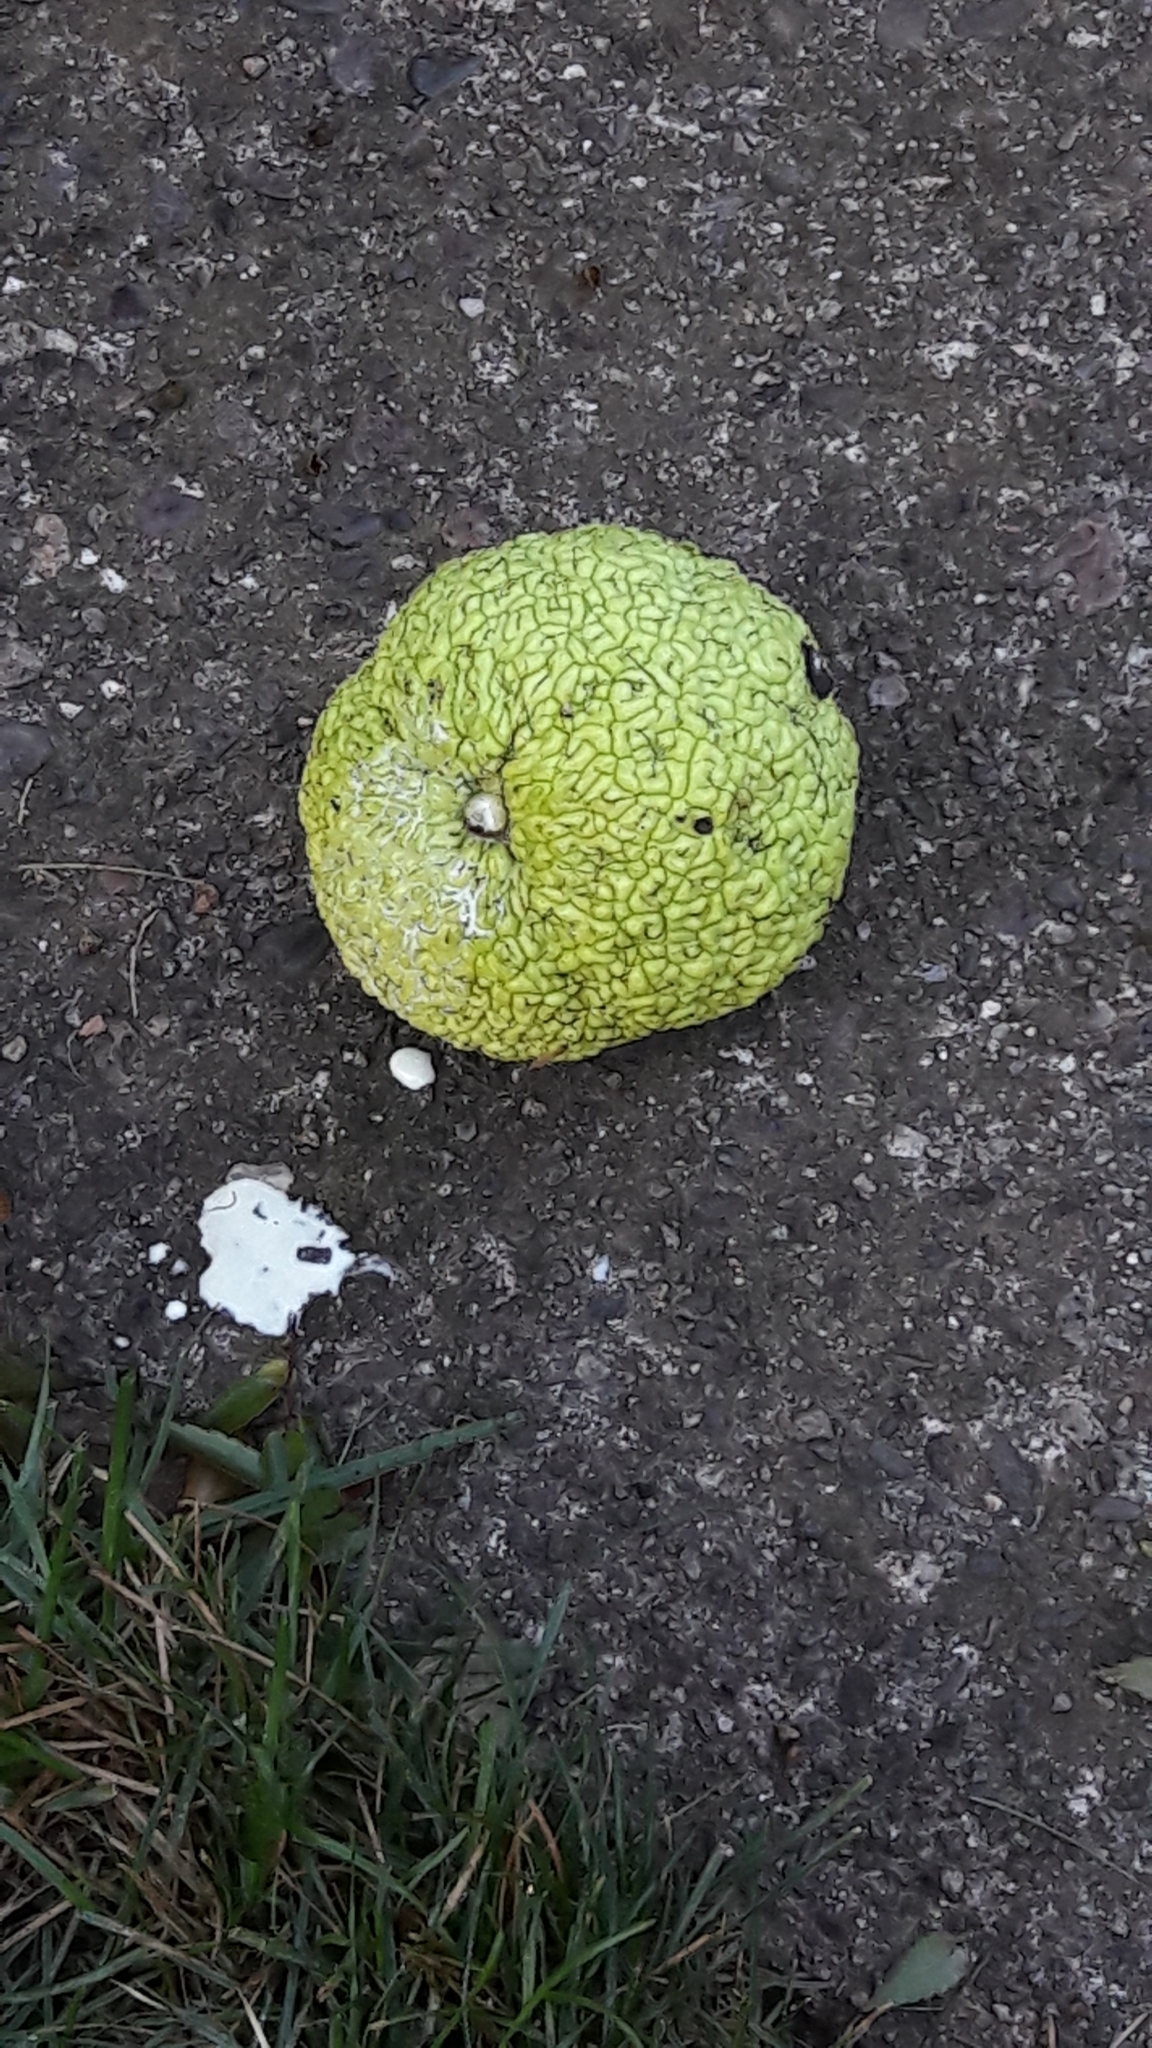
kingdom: Plantae
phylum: Tracheophyta
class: Magnoliopsida
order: Rosales
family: Moraceae
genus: Maclura
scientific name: Maclura pomifera
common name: Osage-orange
